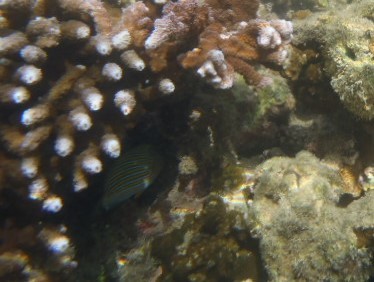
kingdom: Animalia
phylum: Chordata
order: Perciformes
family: Acanthuridae
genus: Acanthurus
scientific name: Acanthurus lineatus
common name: Striped surgeonfish
